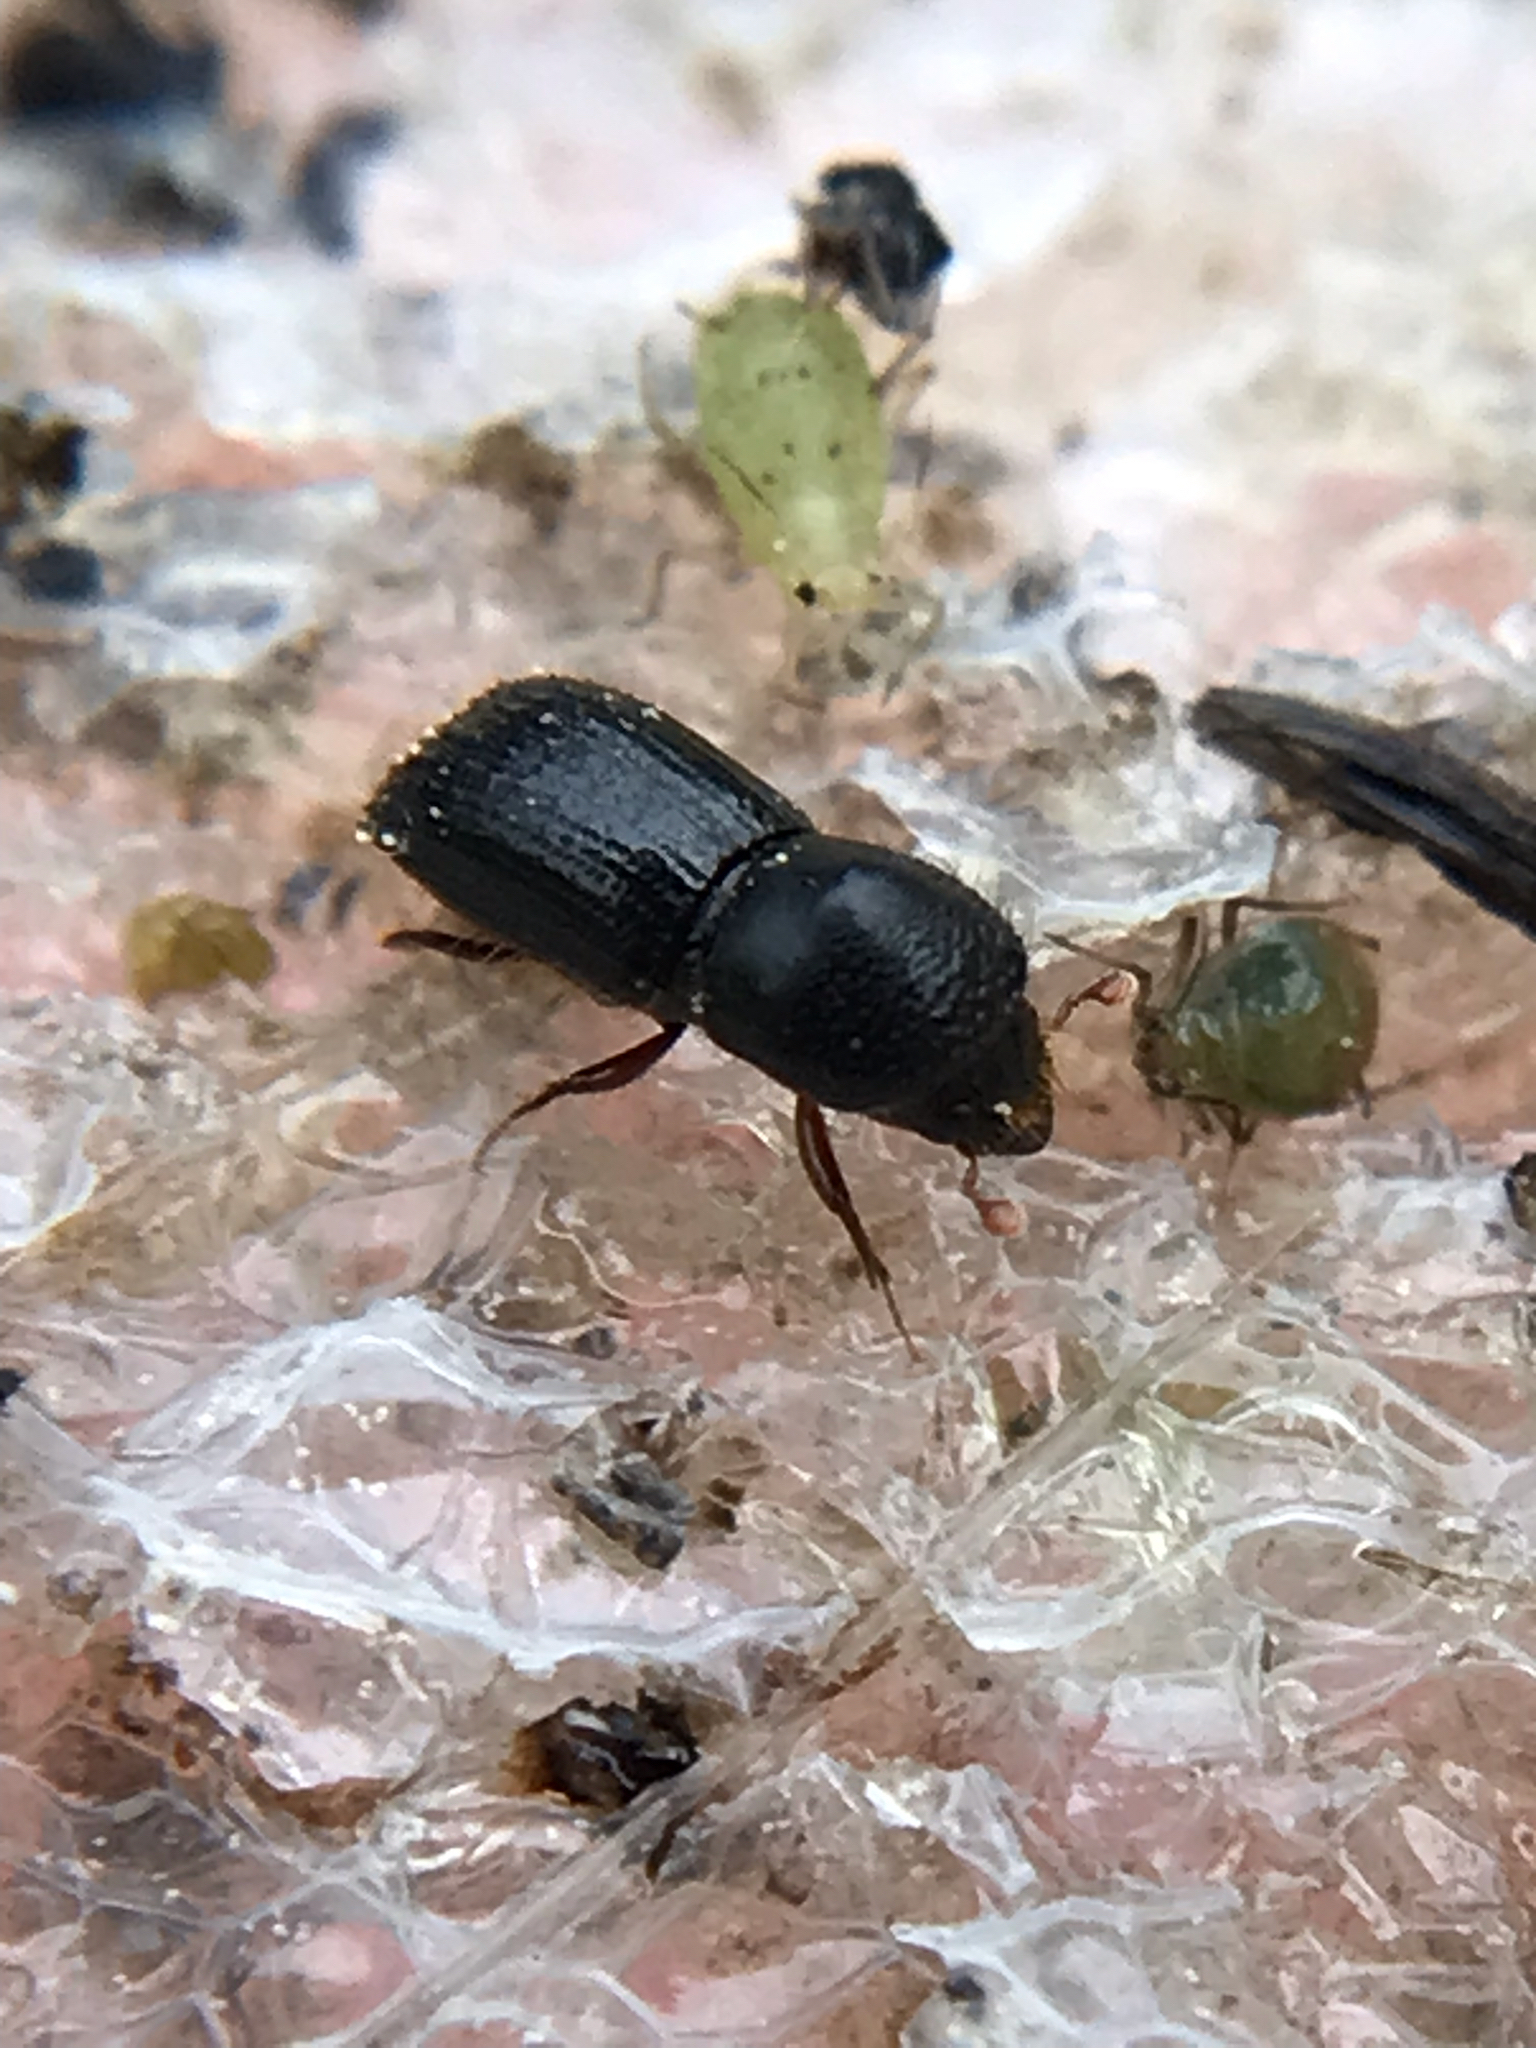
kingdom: Animalia
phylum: Arthropoda
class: Insecta
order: Coleoptera
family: Curculionidae
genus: Euwallacea
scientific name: Euwallacea validus
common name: Bark beetle
